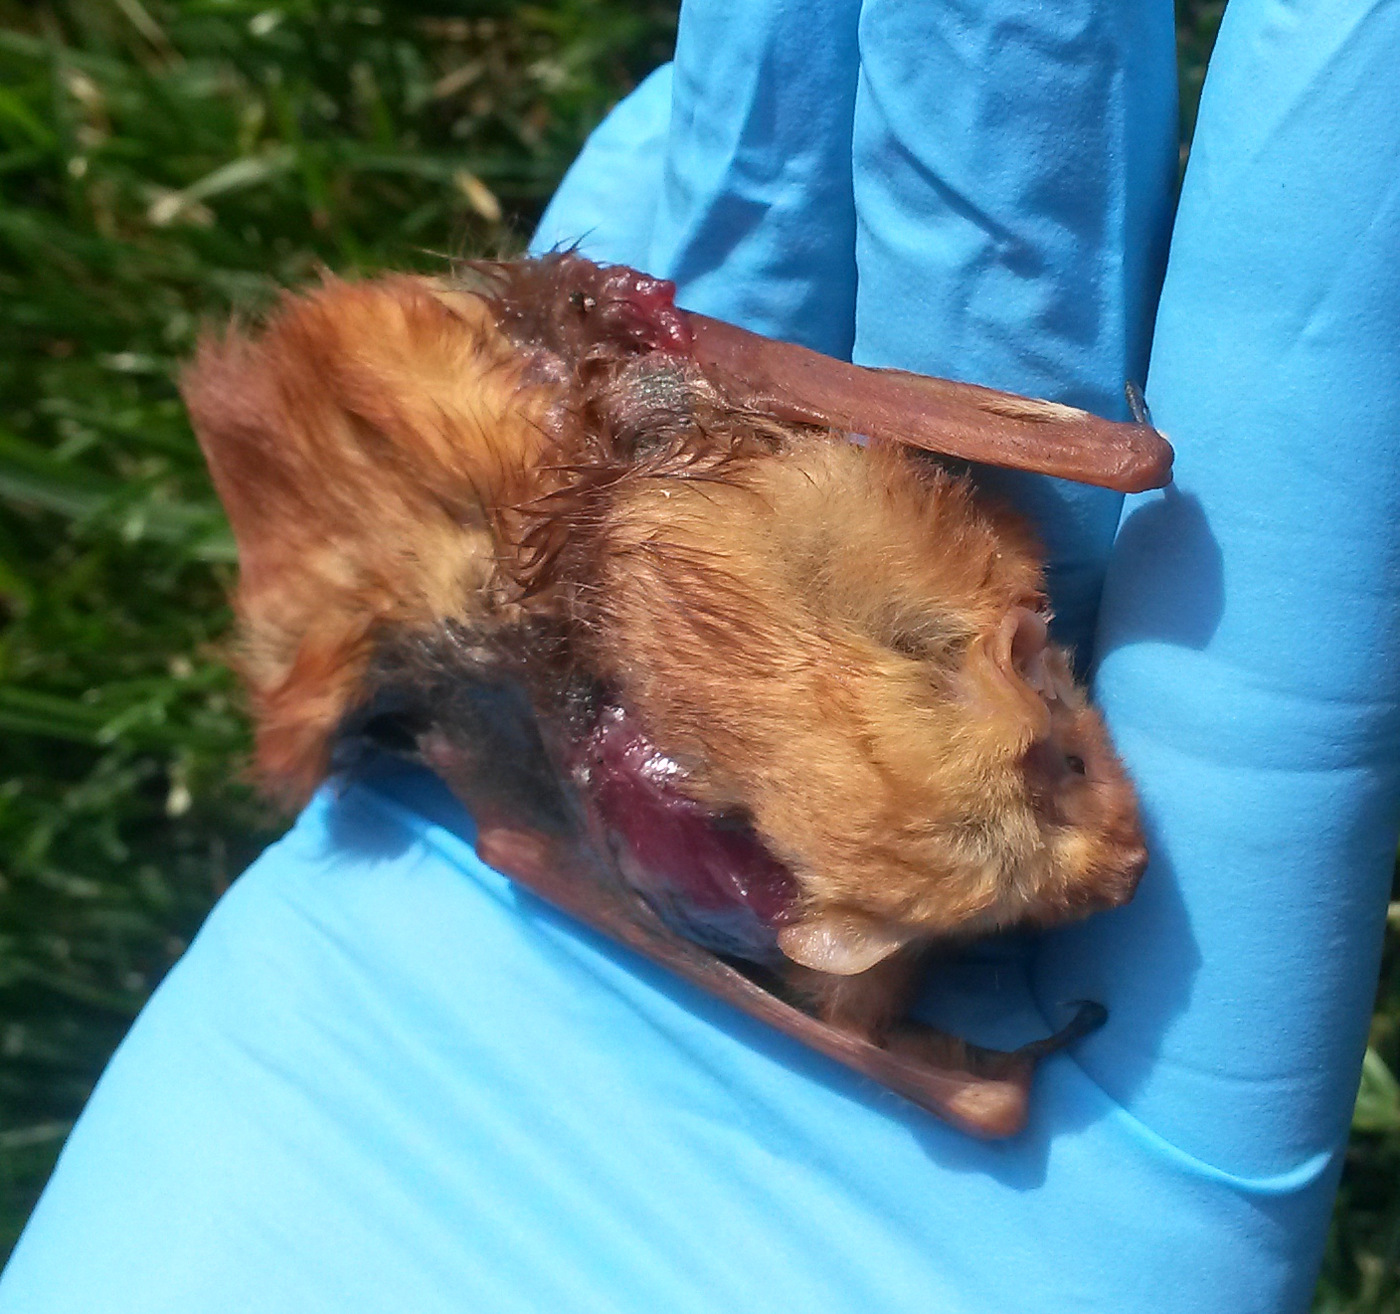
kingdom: Animalia
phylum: Chordata
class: Mammalia
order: Chiroptera
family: Vespertilionidae
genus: Lasiurus
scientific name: Lasiurus borealis
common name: Eastern red bat
